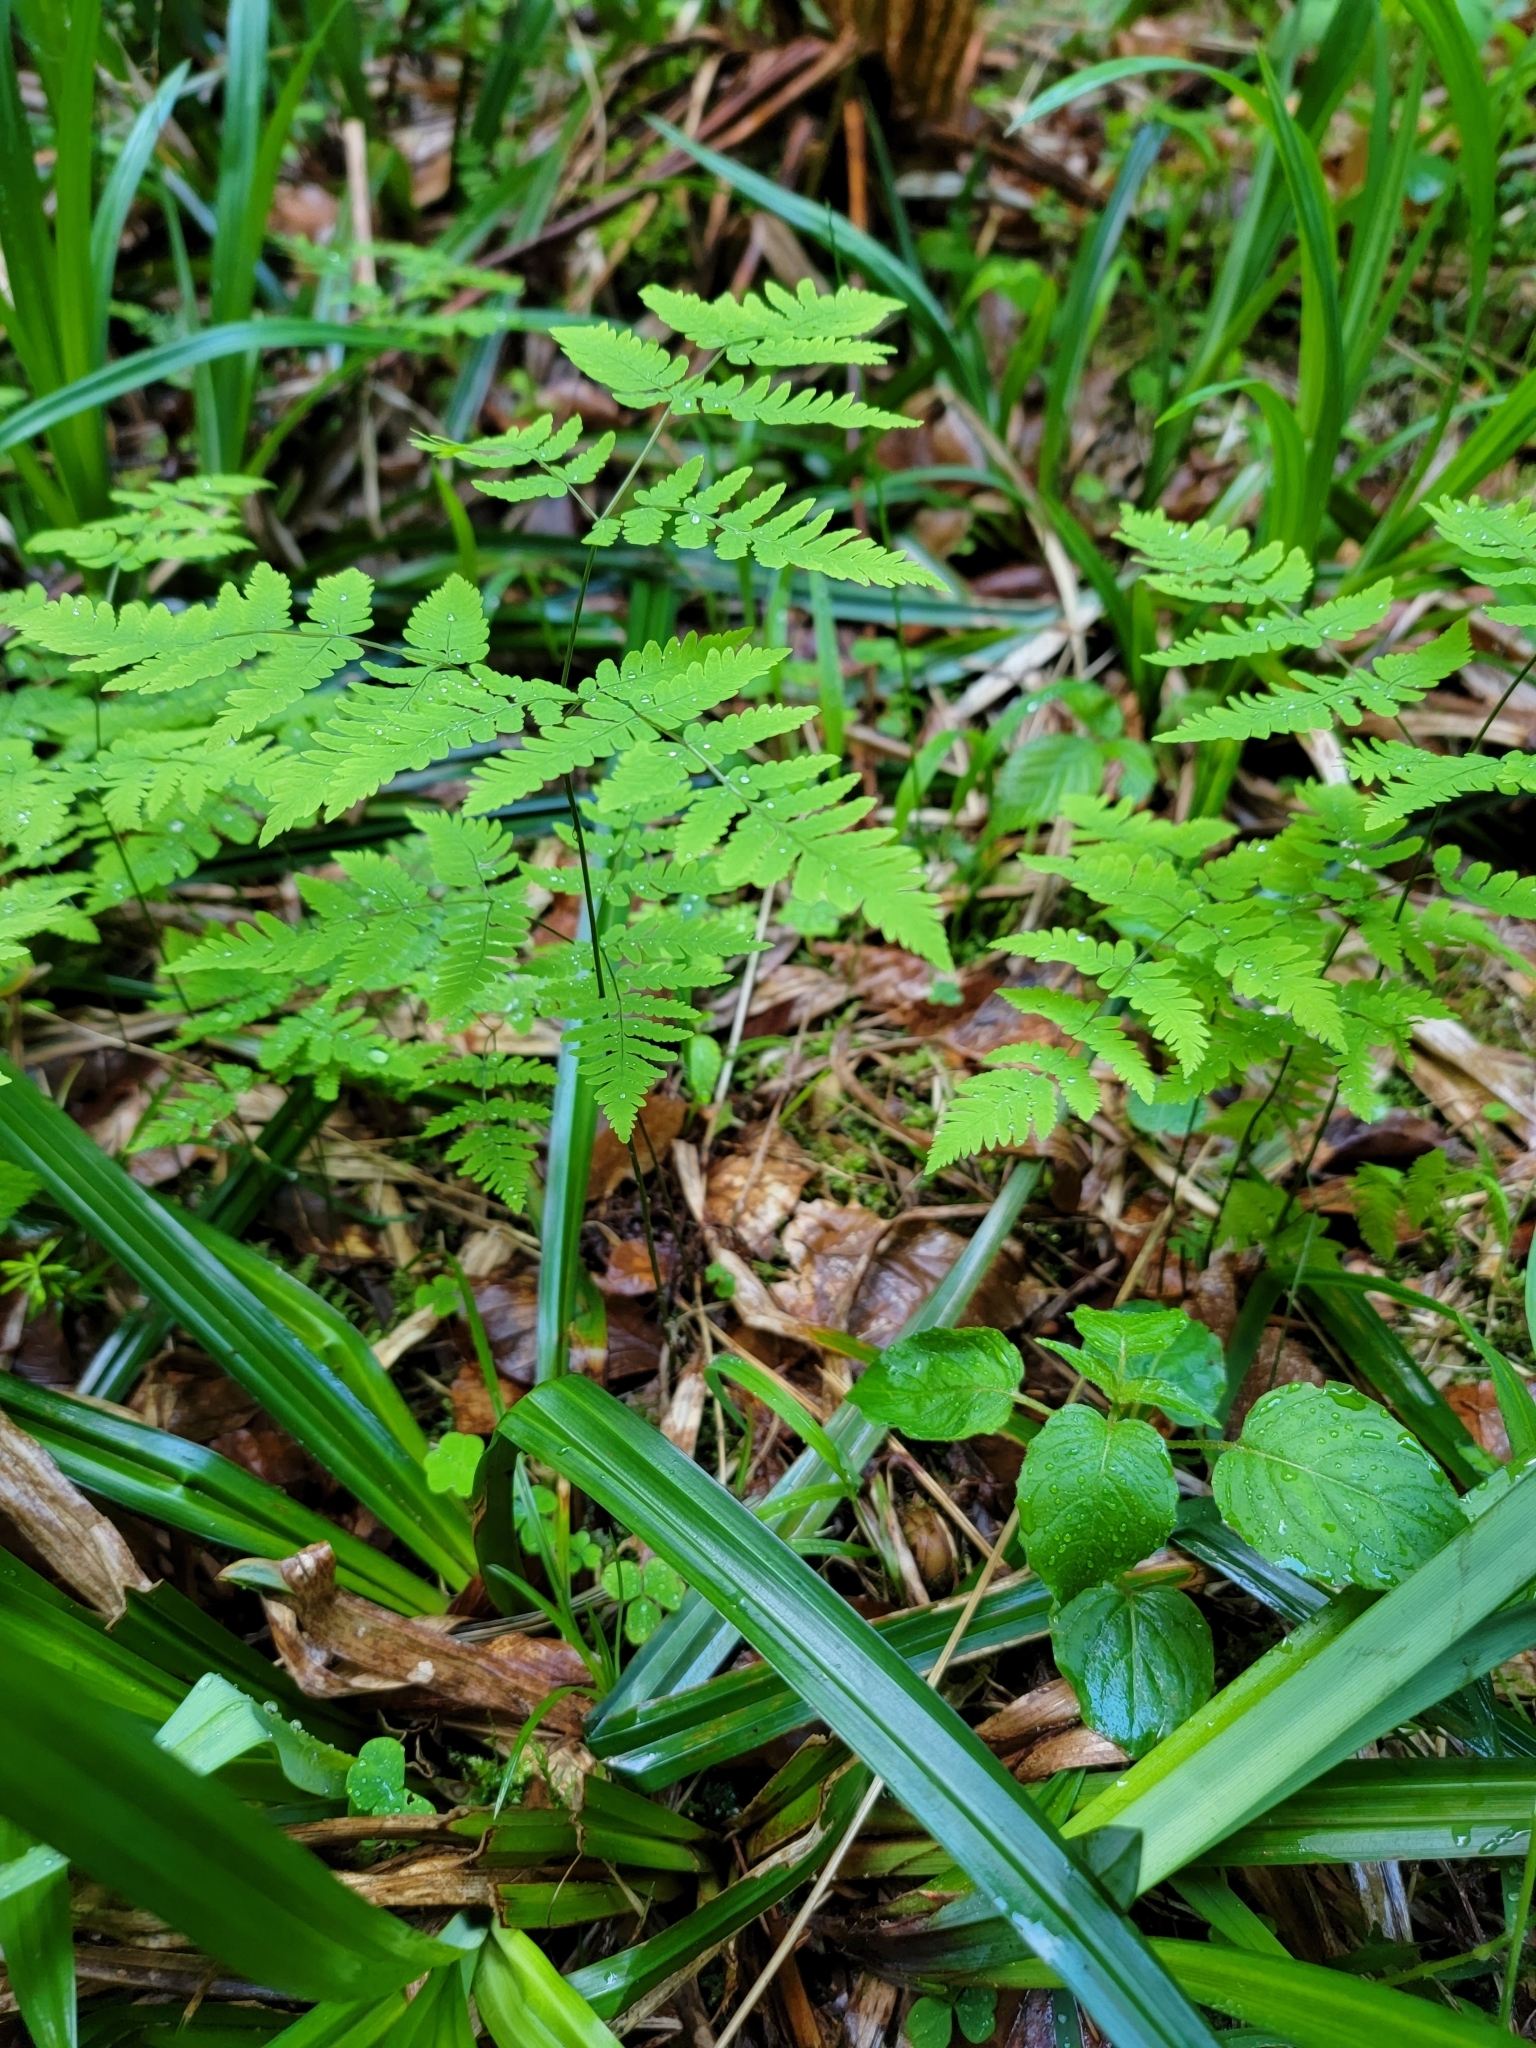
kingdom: Plantae
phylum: Tracheophyta
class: Polypodiopsida
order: Polypodiales
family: Cystopteridaceae
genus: Gymnocarpium
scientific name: Gymnocarpium dryopteris
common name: Oak fern
